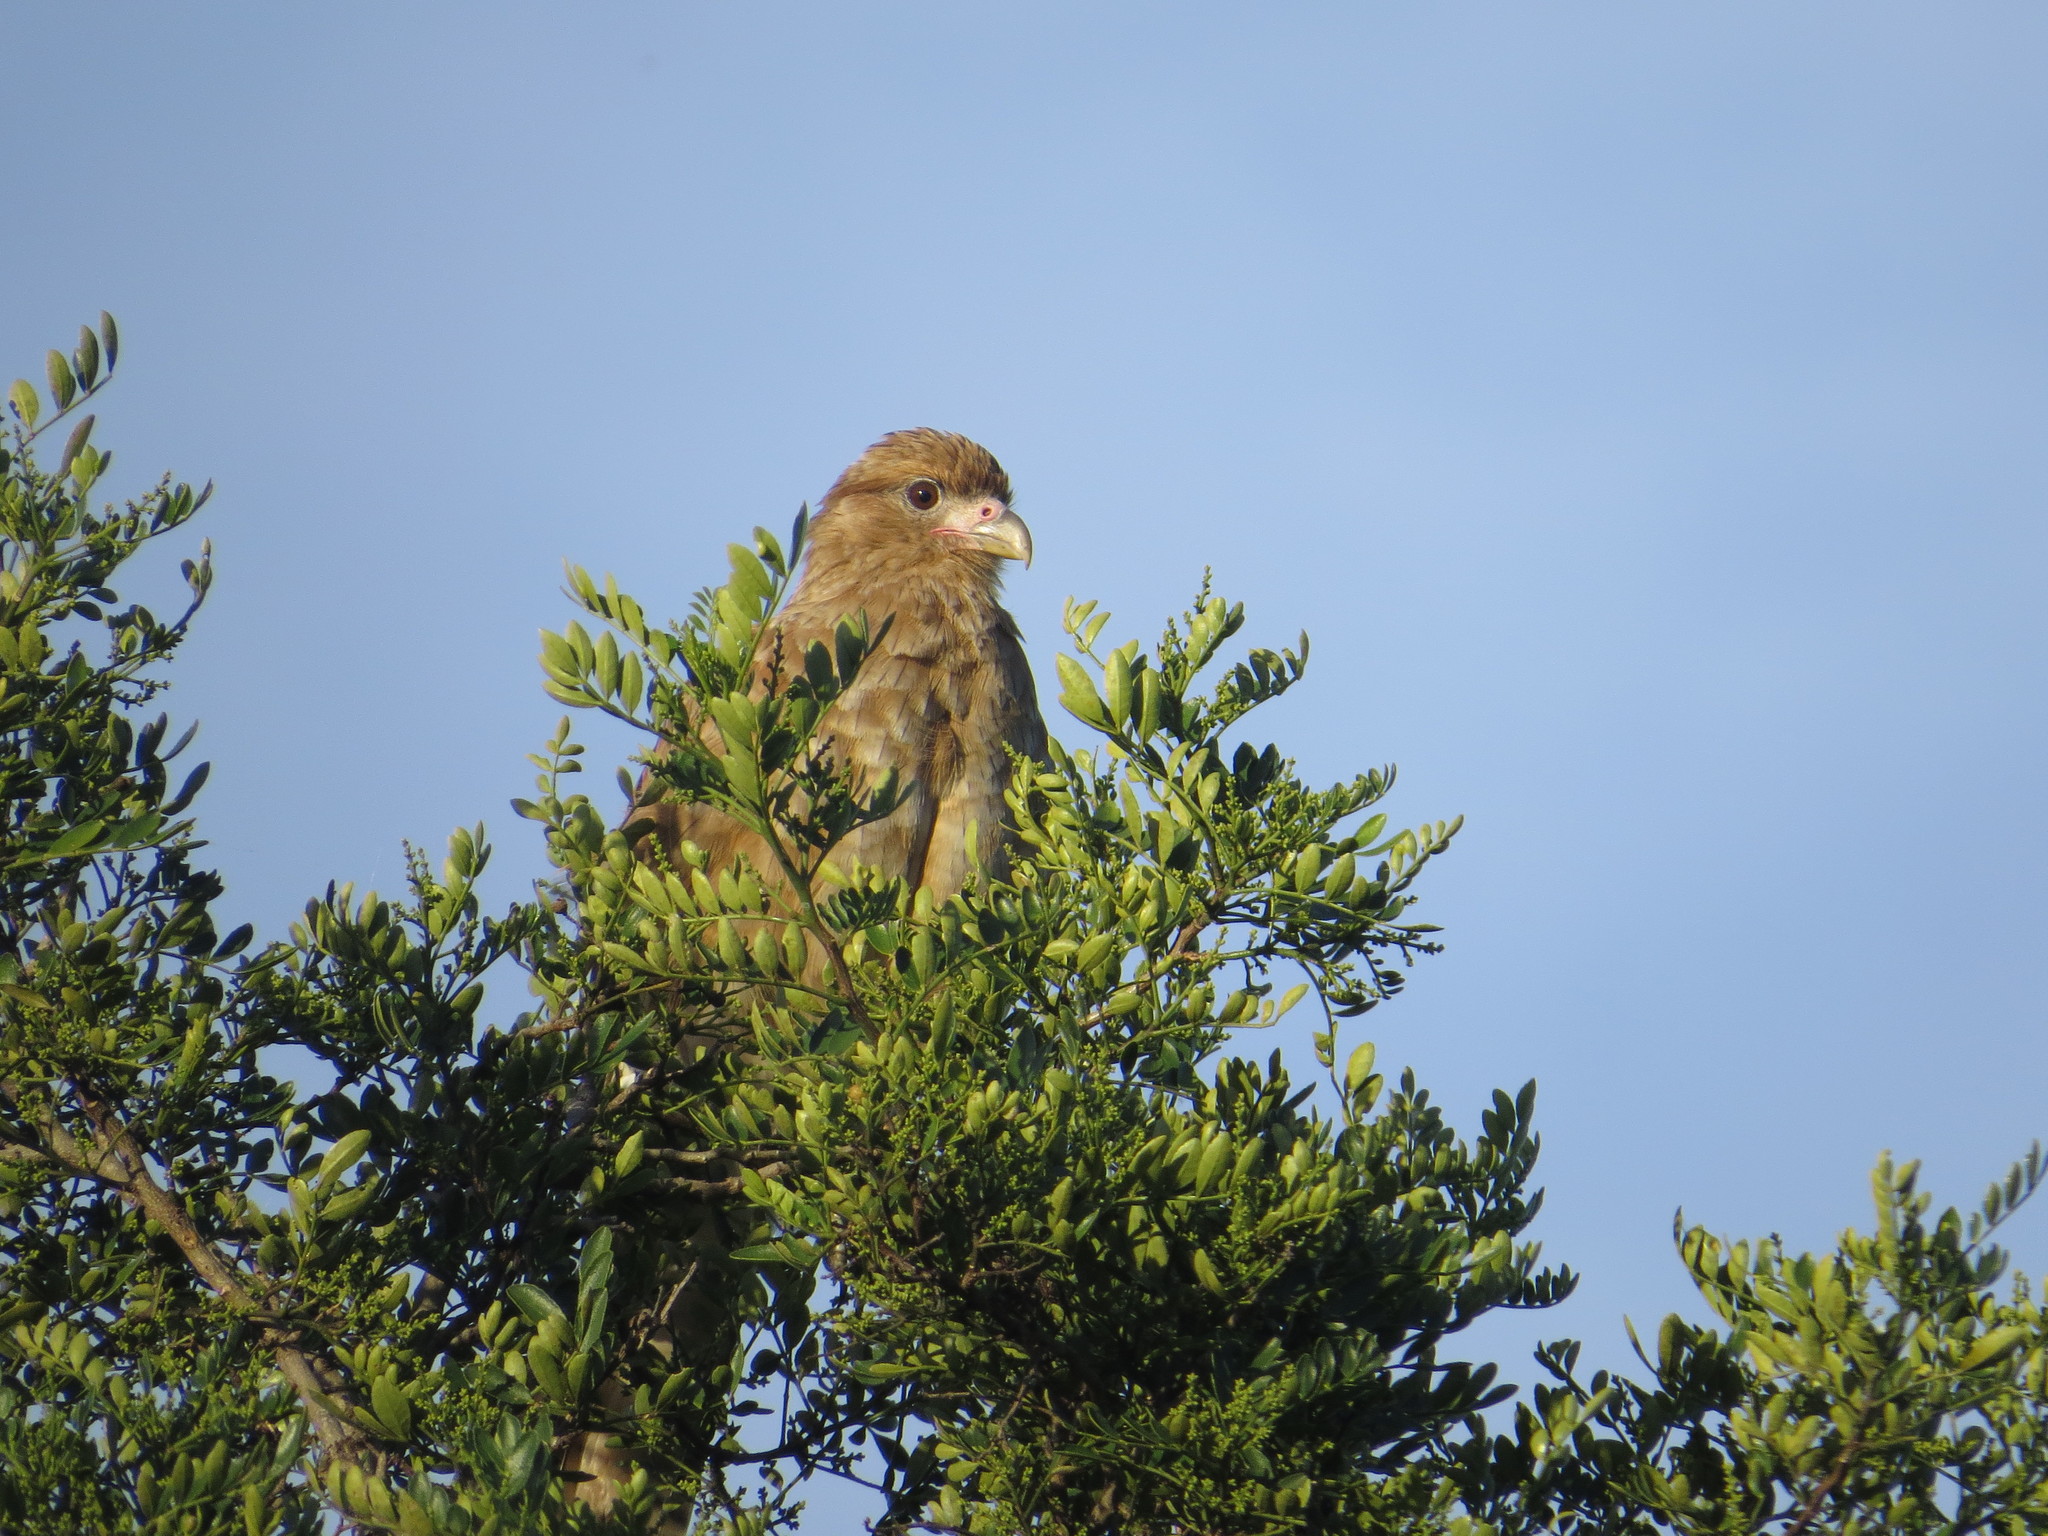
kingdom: Animalia
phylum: Chordata
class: Aves
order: Falconiformes
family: Falconidae
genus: Daptrius
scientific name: Daptrius
